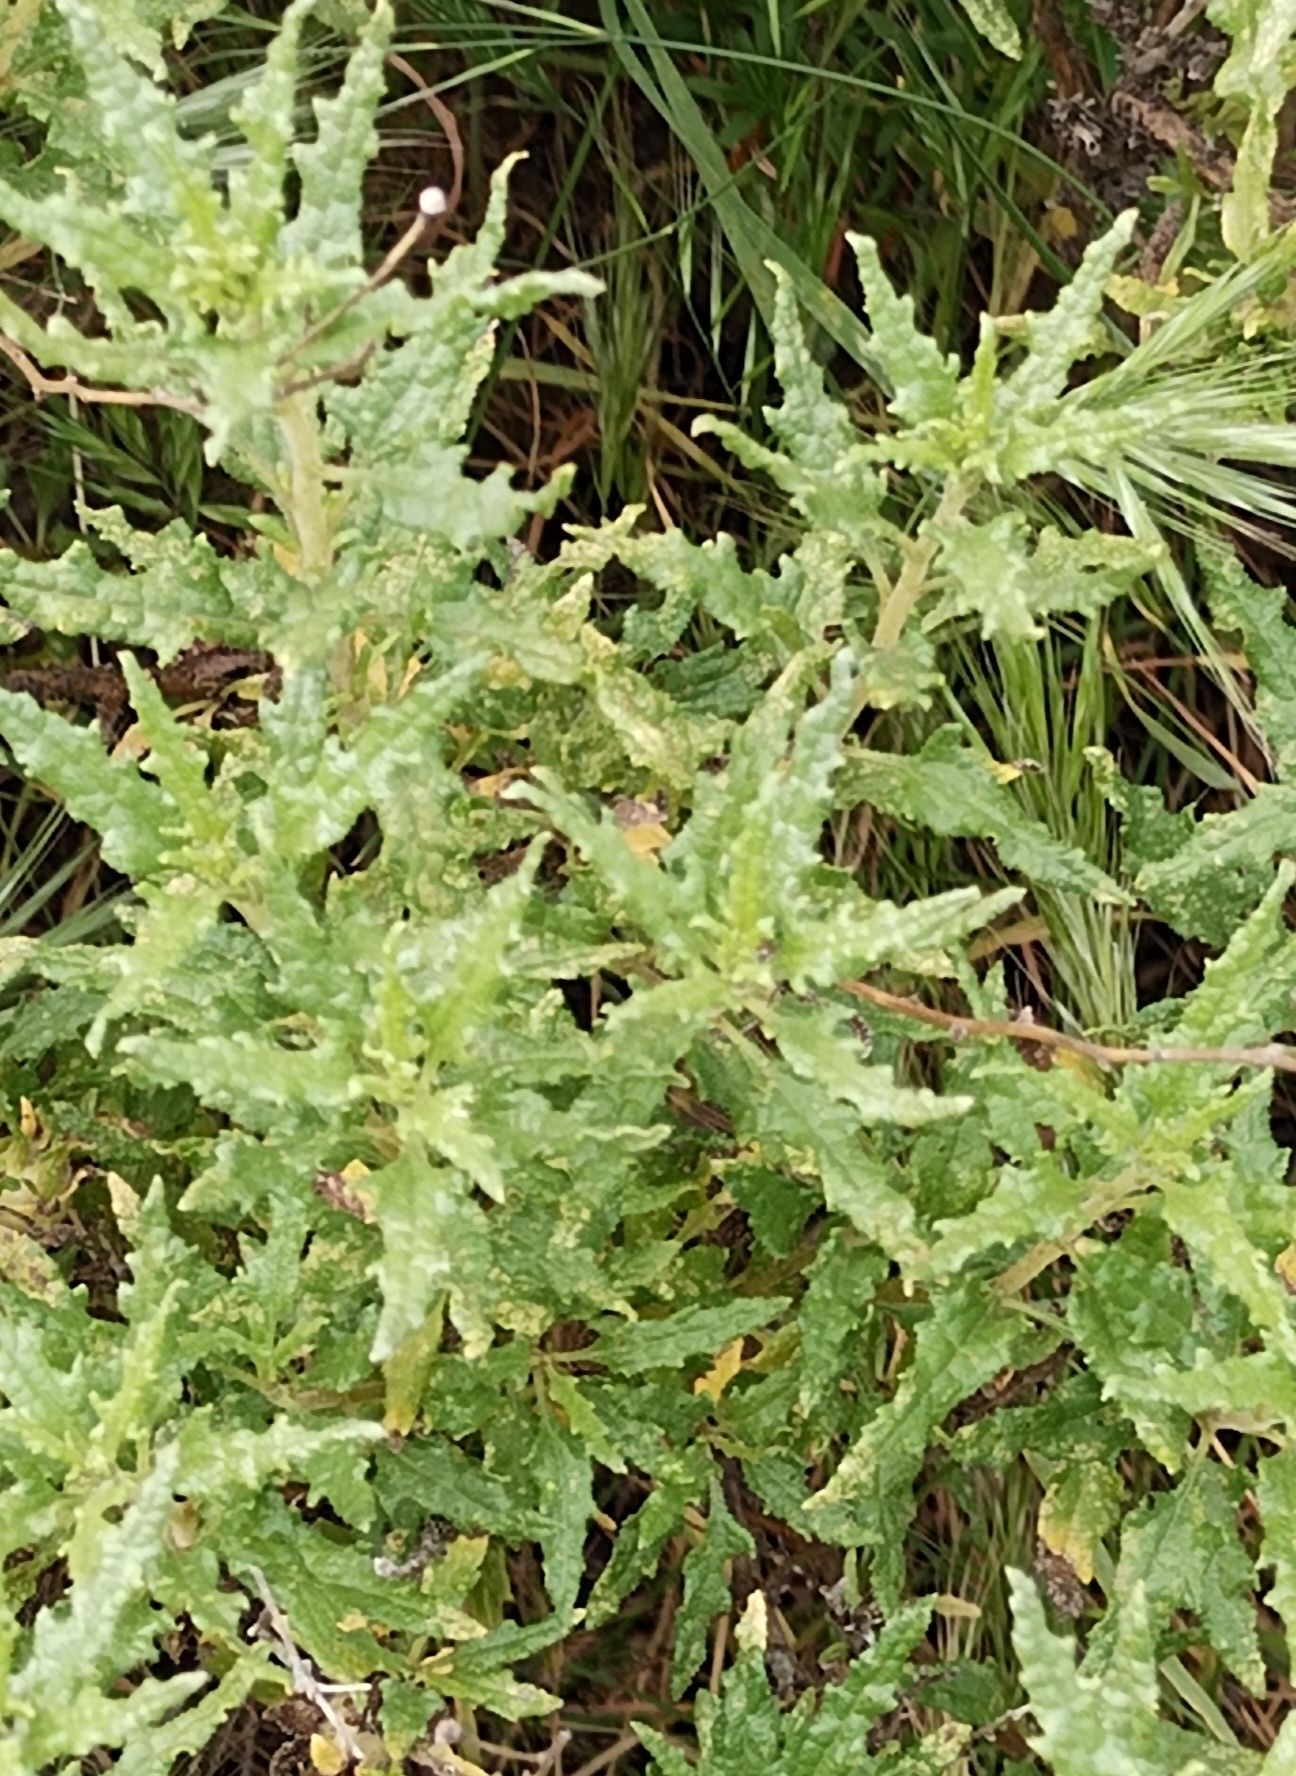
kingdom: Plantae
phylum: Tracheophyta
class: Magnoliopsida
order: Asterales
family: Asteraceae
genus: Bahiopsis
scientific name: Bahiopsis laciniata
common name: San diego county viguiera
